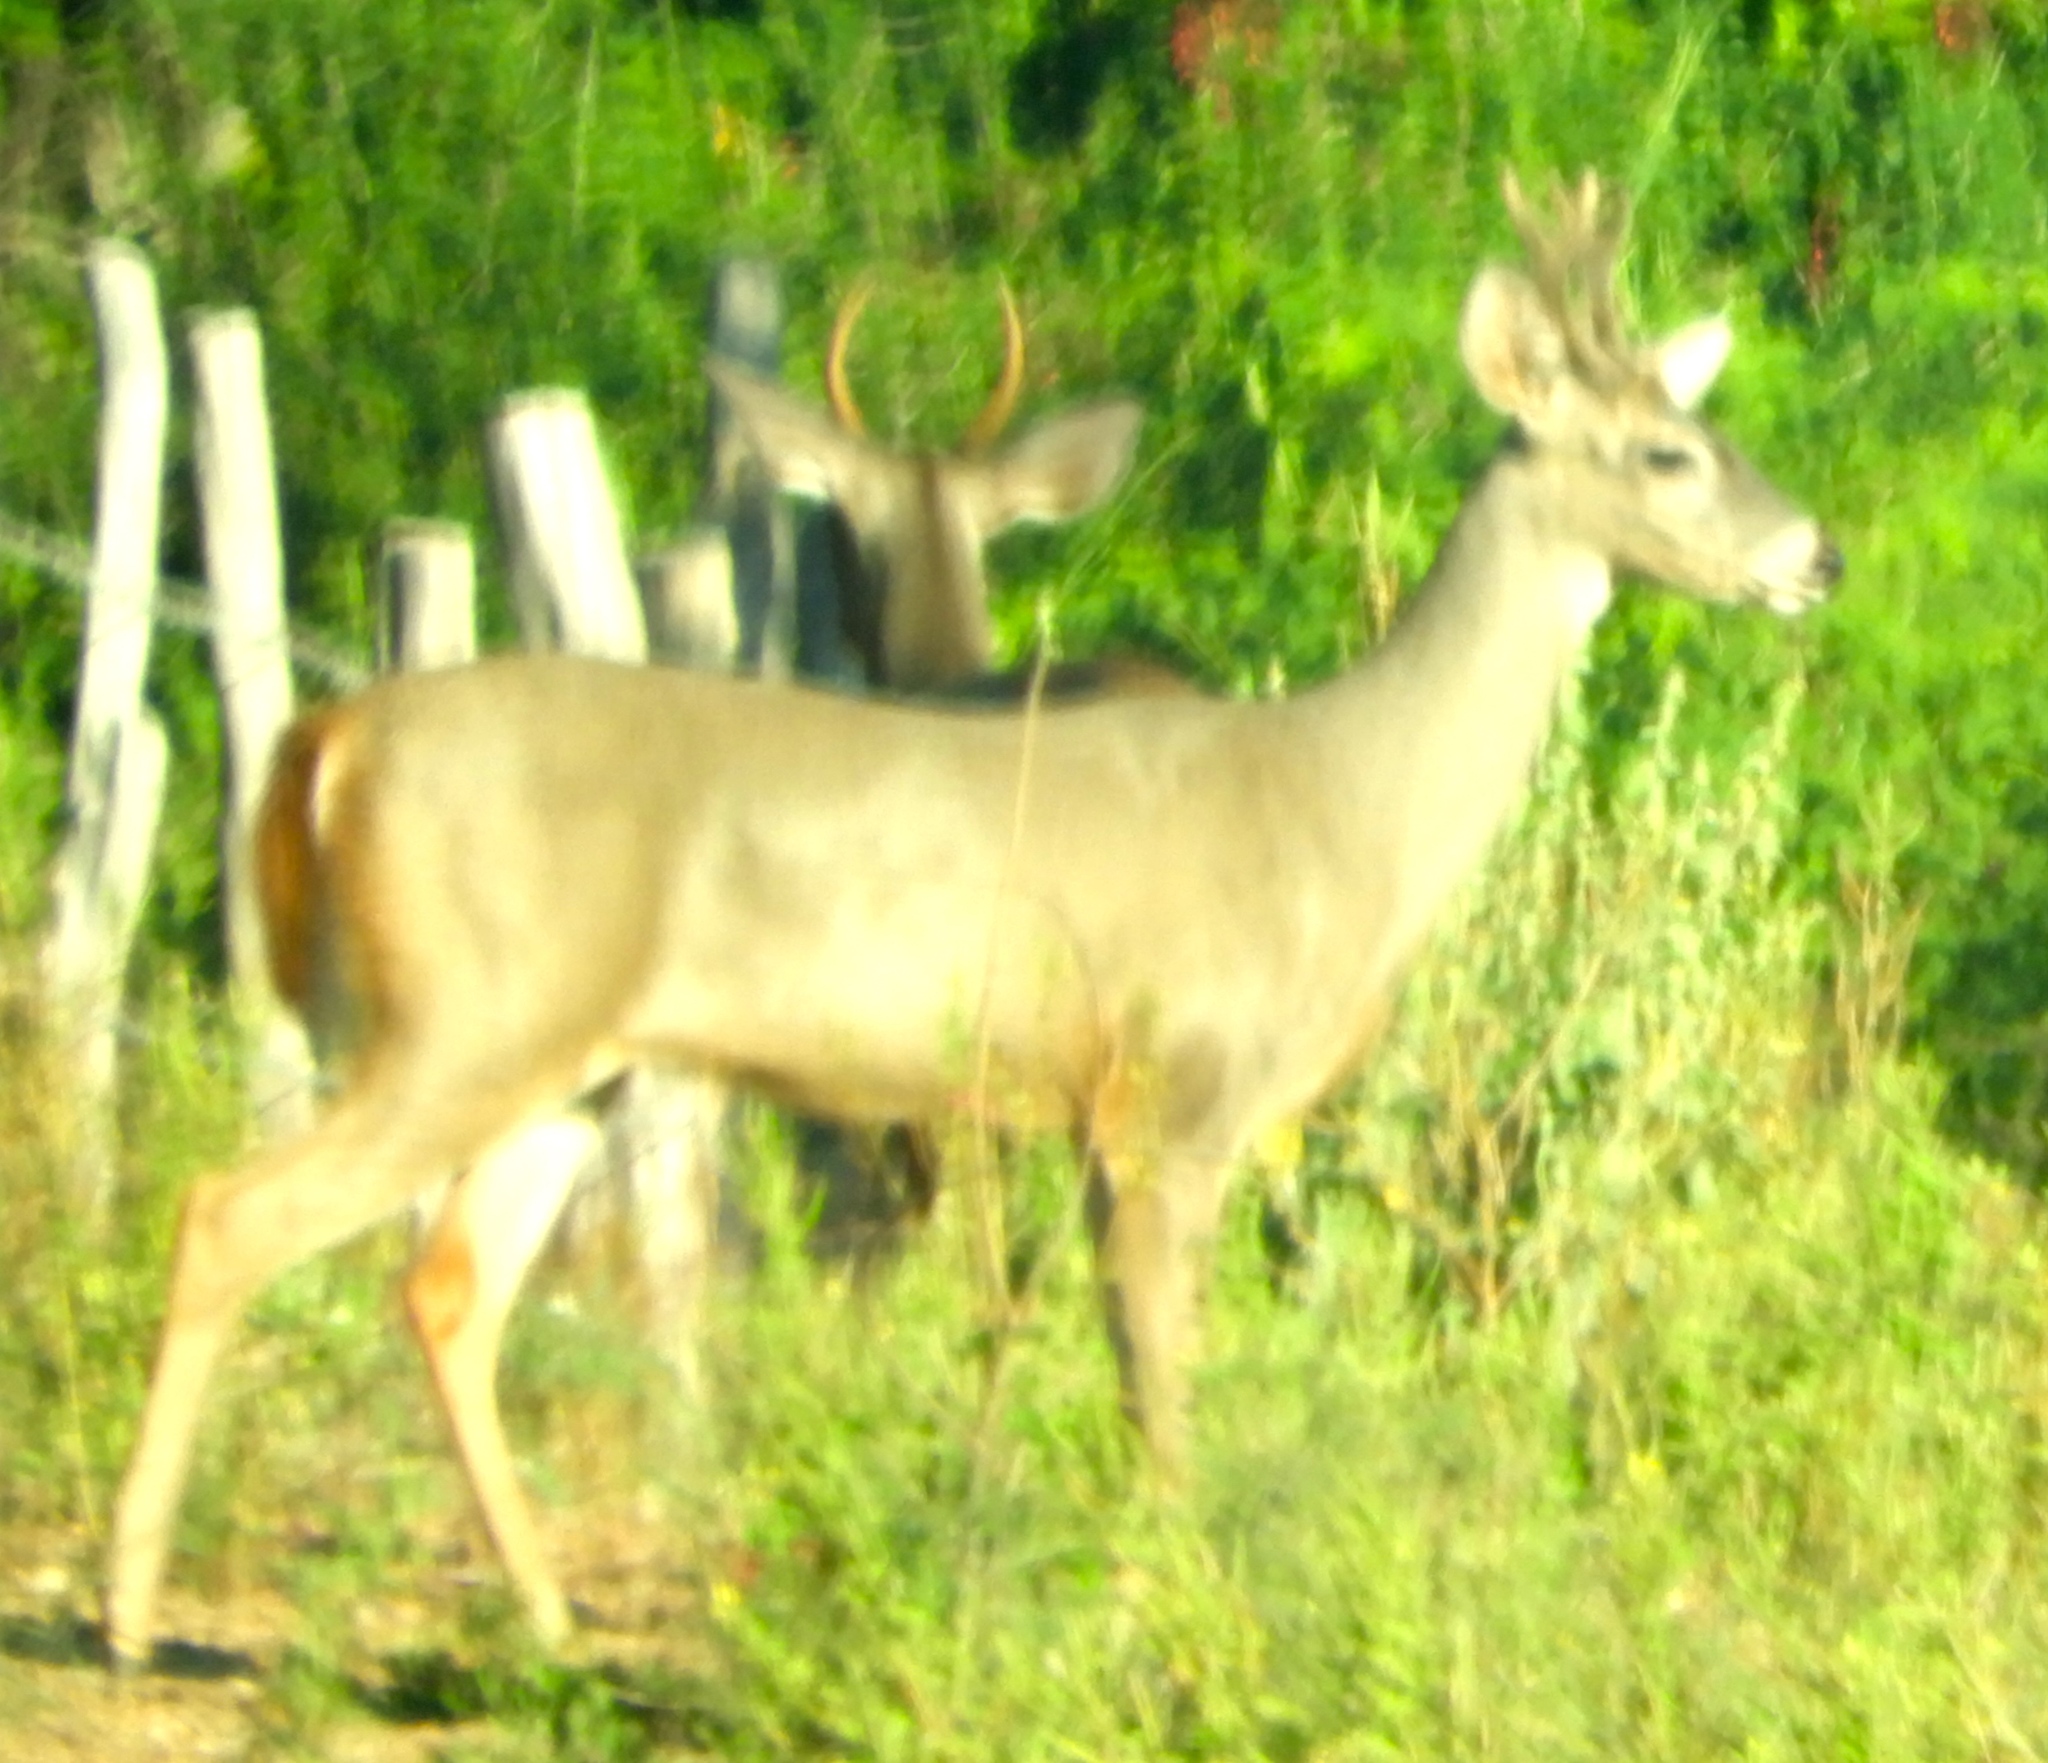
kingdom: Animalia
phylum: Chordata
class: Mammalia
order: Artiodactyla
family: Cervidae
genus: Odocoileus
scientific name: Odocoileus virginianus
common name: White-tailed deer
